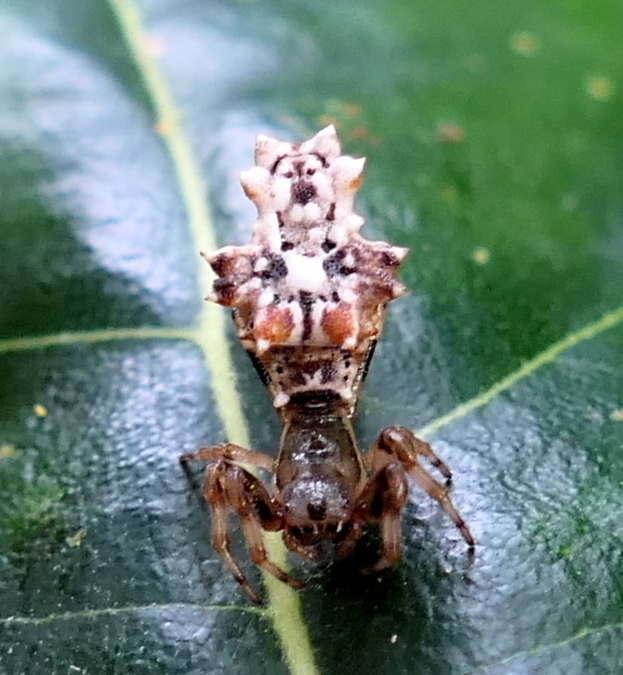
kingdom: Animalia
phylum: Arthropoda
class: Arachnida
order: Araneae
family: Araneidae
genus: Micrathena
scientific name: Micrathena horrida
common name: Orb weavers
